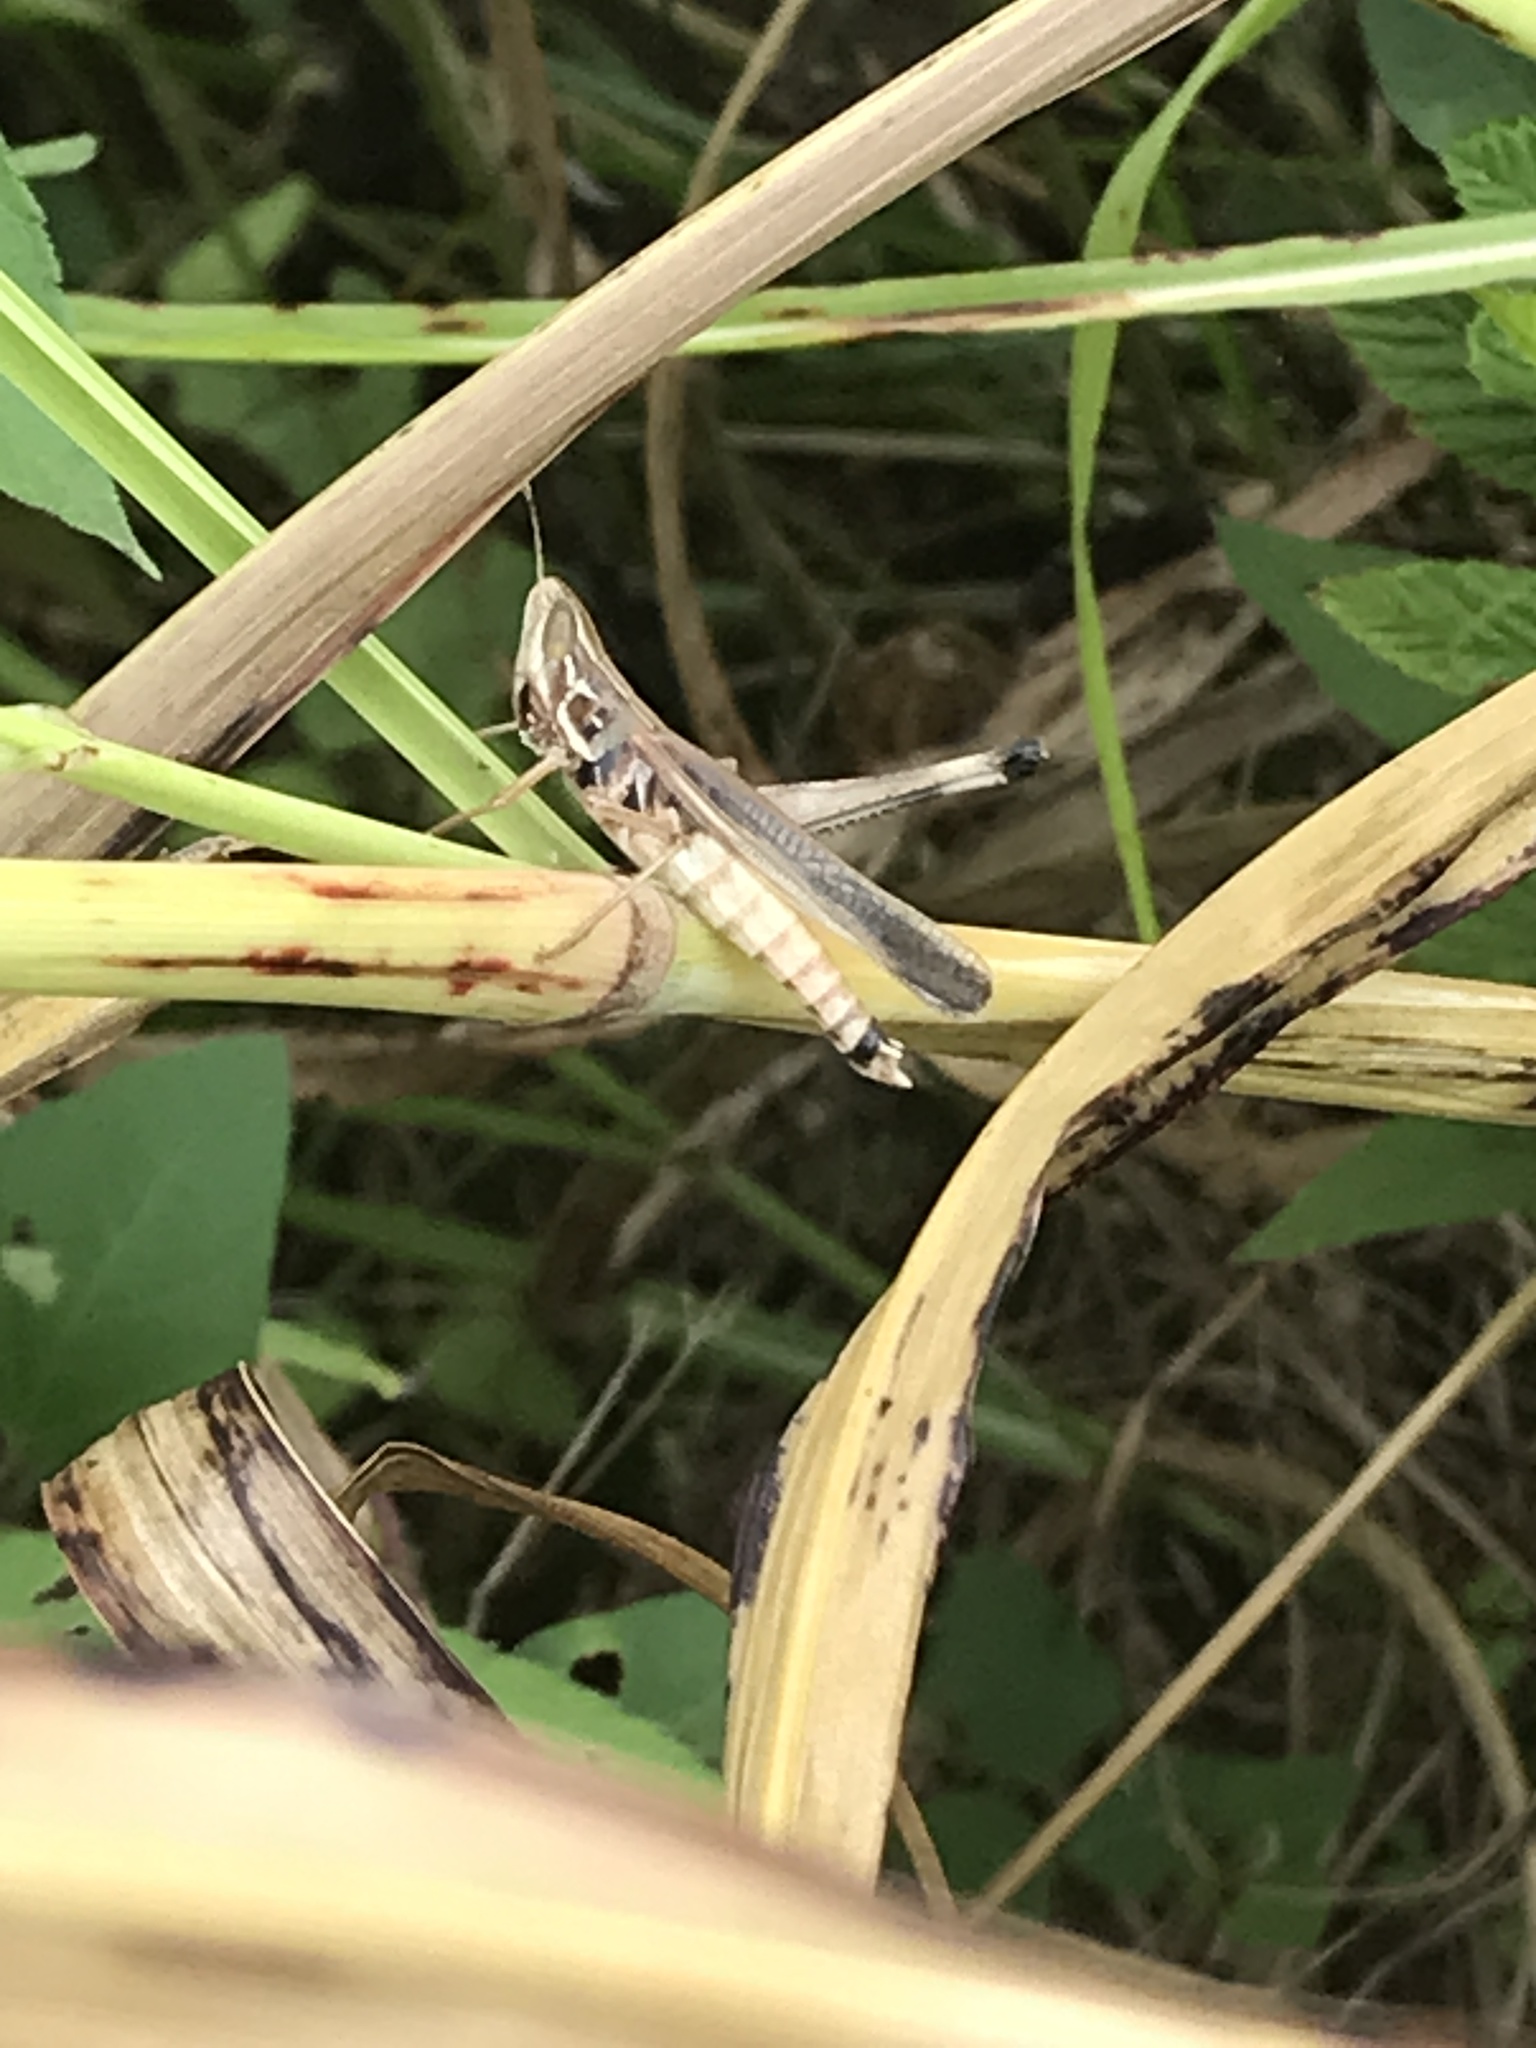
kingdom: Animalia
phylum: Arthropoda
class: Insecta
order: Orthoptera
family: Acrididae
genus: Syrbula
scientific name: Syrbula admirabilis
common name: Handsome grasshopper
